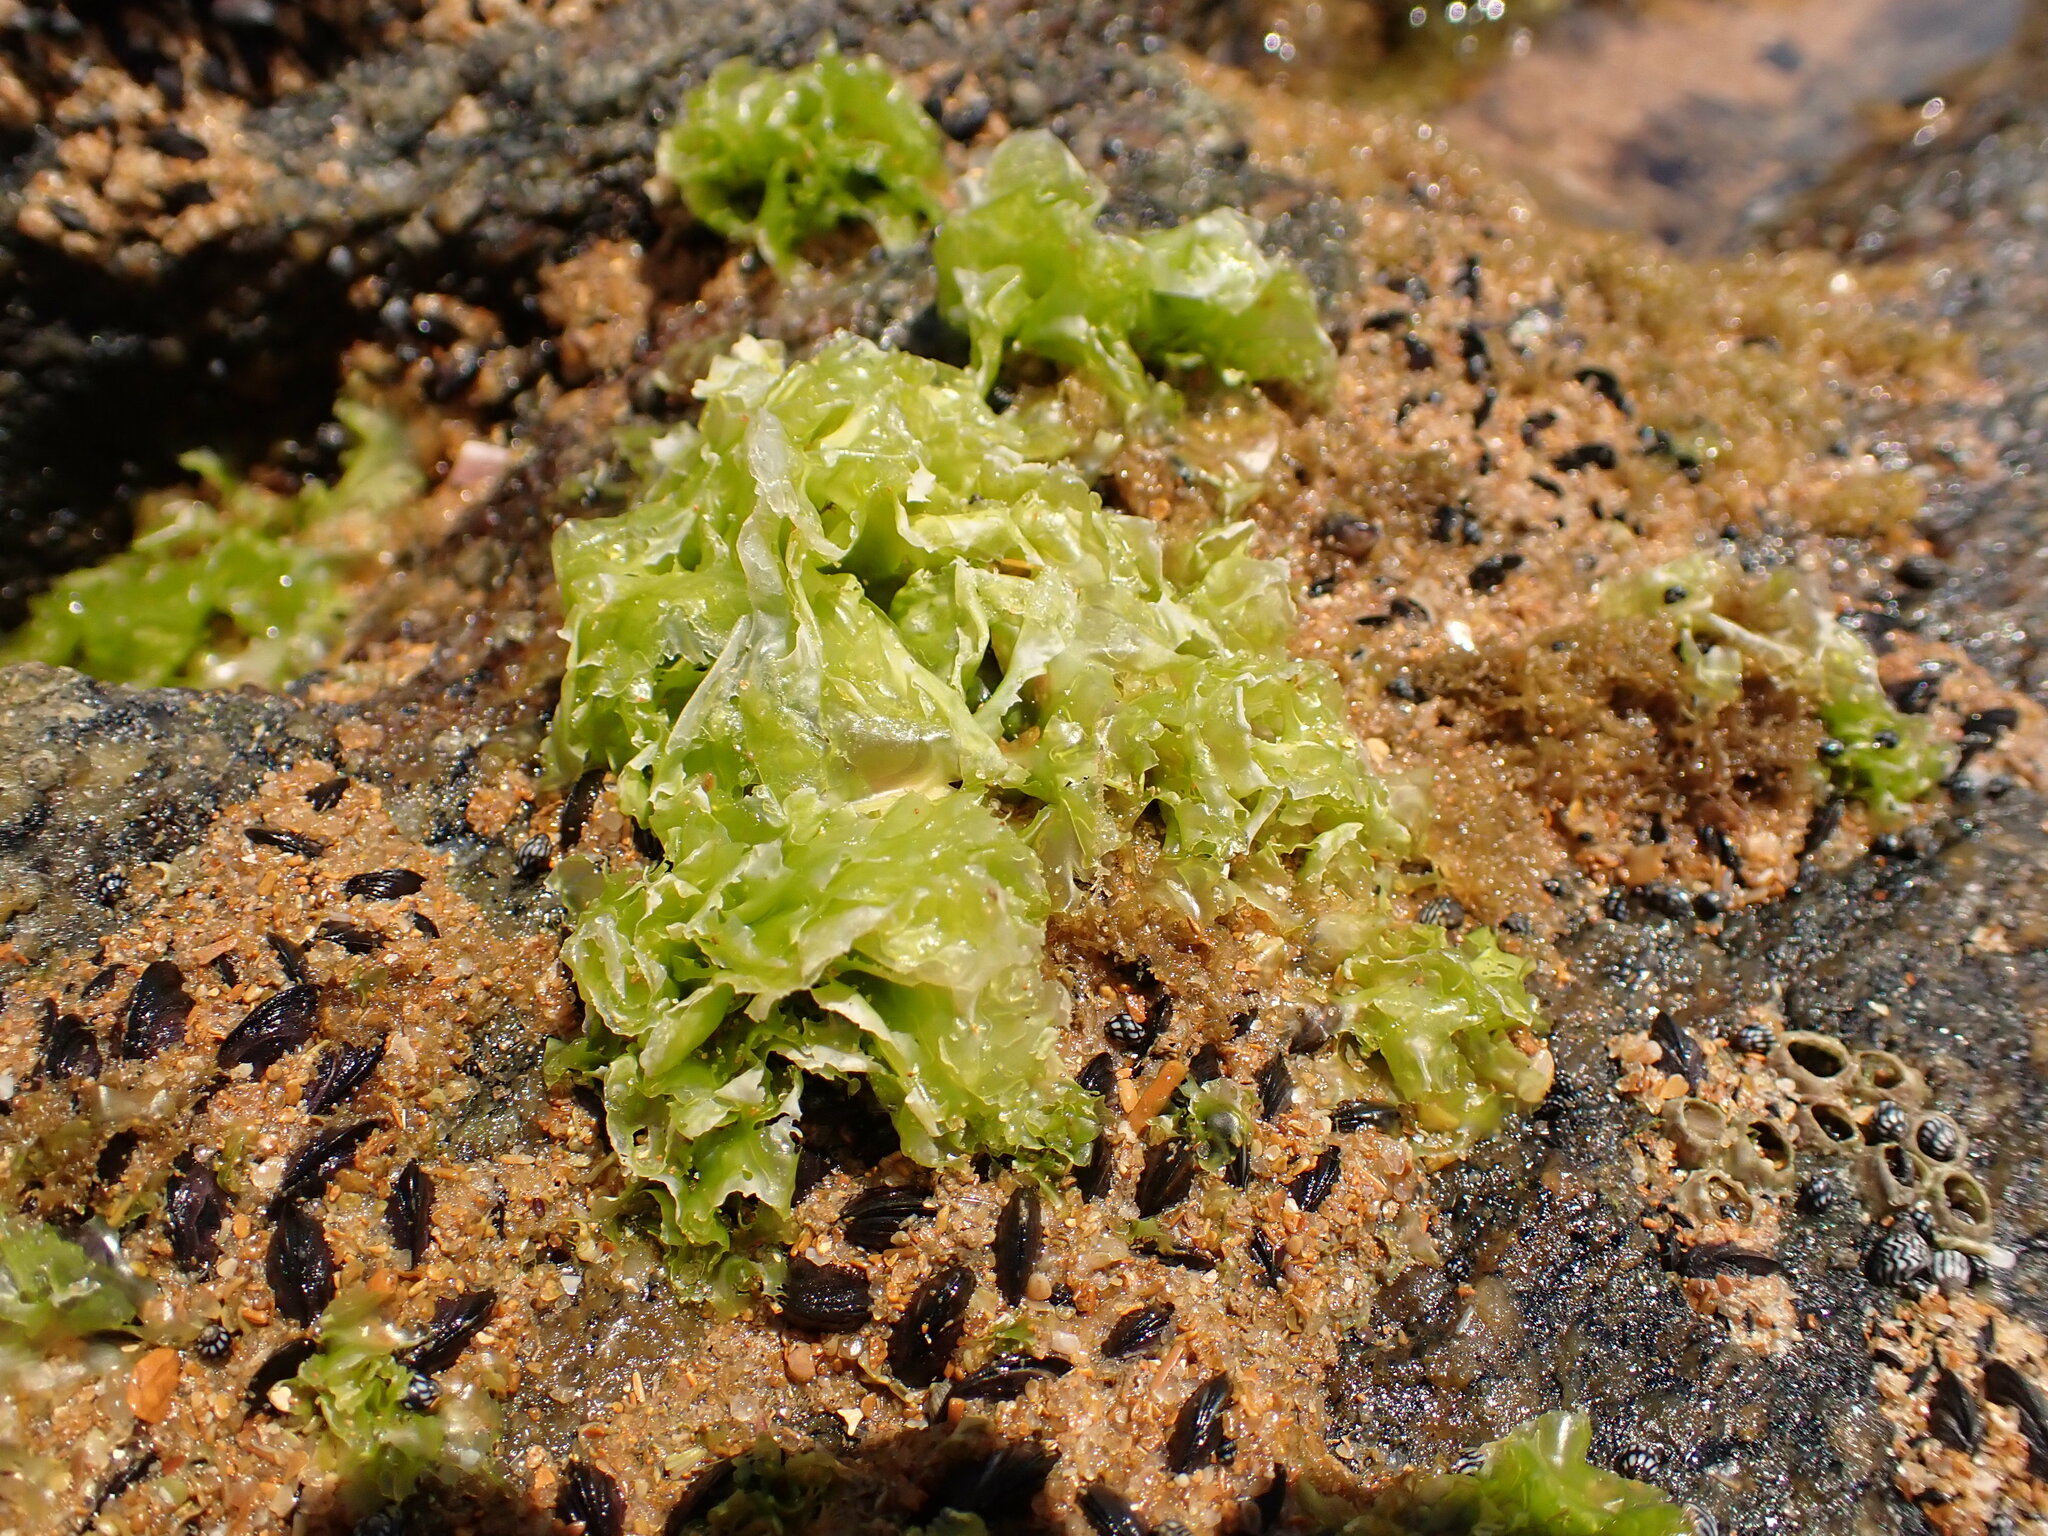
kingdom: Plantae
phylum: Chlorophyta
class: Ulvophyceae
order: Ulvales
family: Ulvaceae
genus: Ulva
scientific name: Ulva lactuca
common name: Sea lettuce
